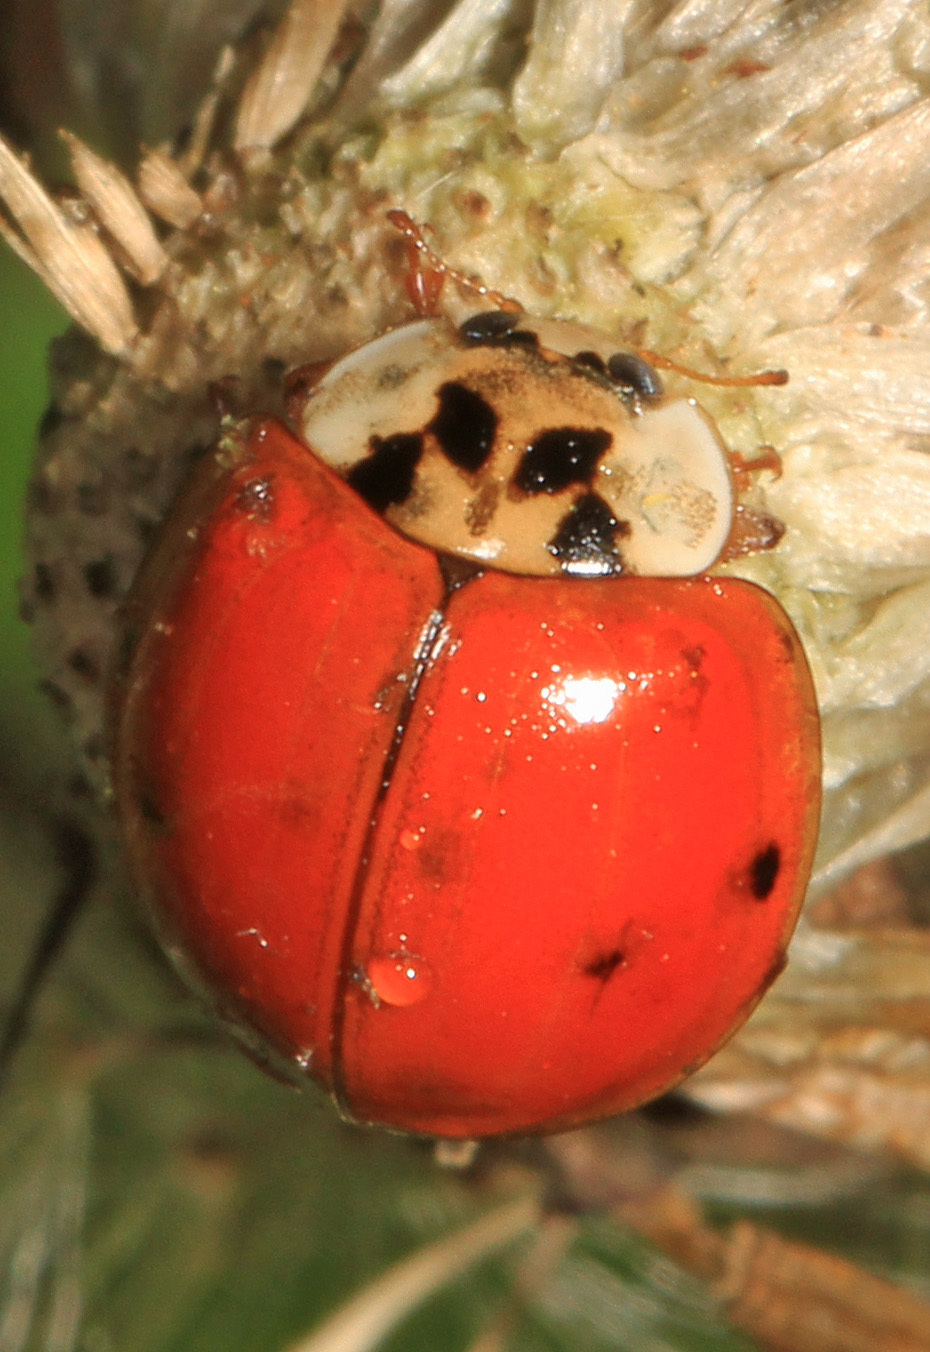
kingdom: Animalia
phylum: Arthropoda
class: Insecta
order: Coleoptera
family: Coccinellidae
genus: Harmonia
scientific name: Harmonia axyridis
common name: Harlequin ladybird
